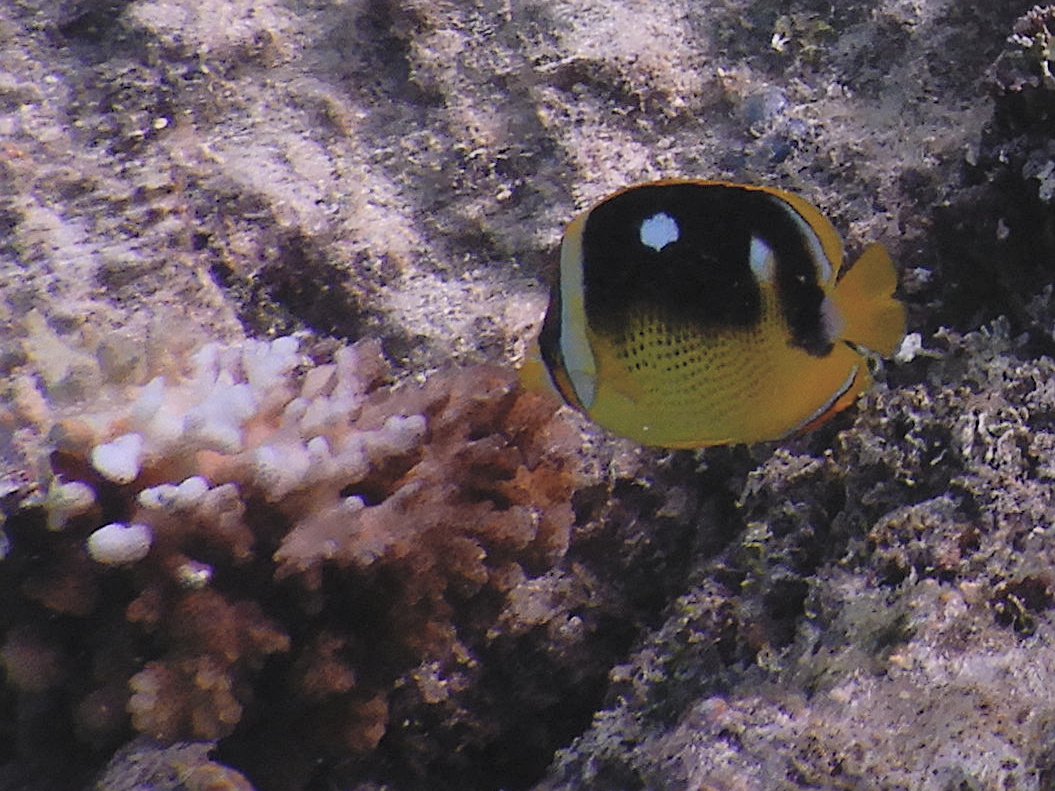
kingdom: Animalia
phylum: Chordata
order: Perciformes
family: Chaetodontidae
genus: Chaetodon
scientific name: Chaetodon quadrimaculatus
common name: Fourspot butterflyfish
